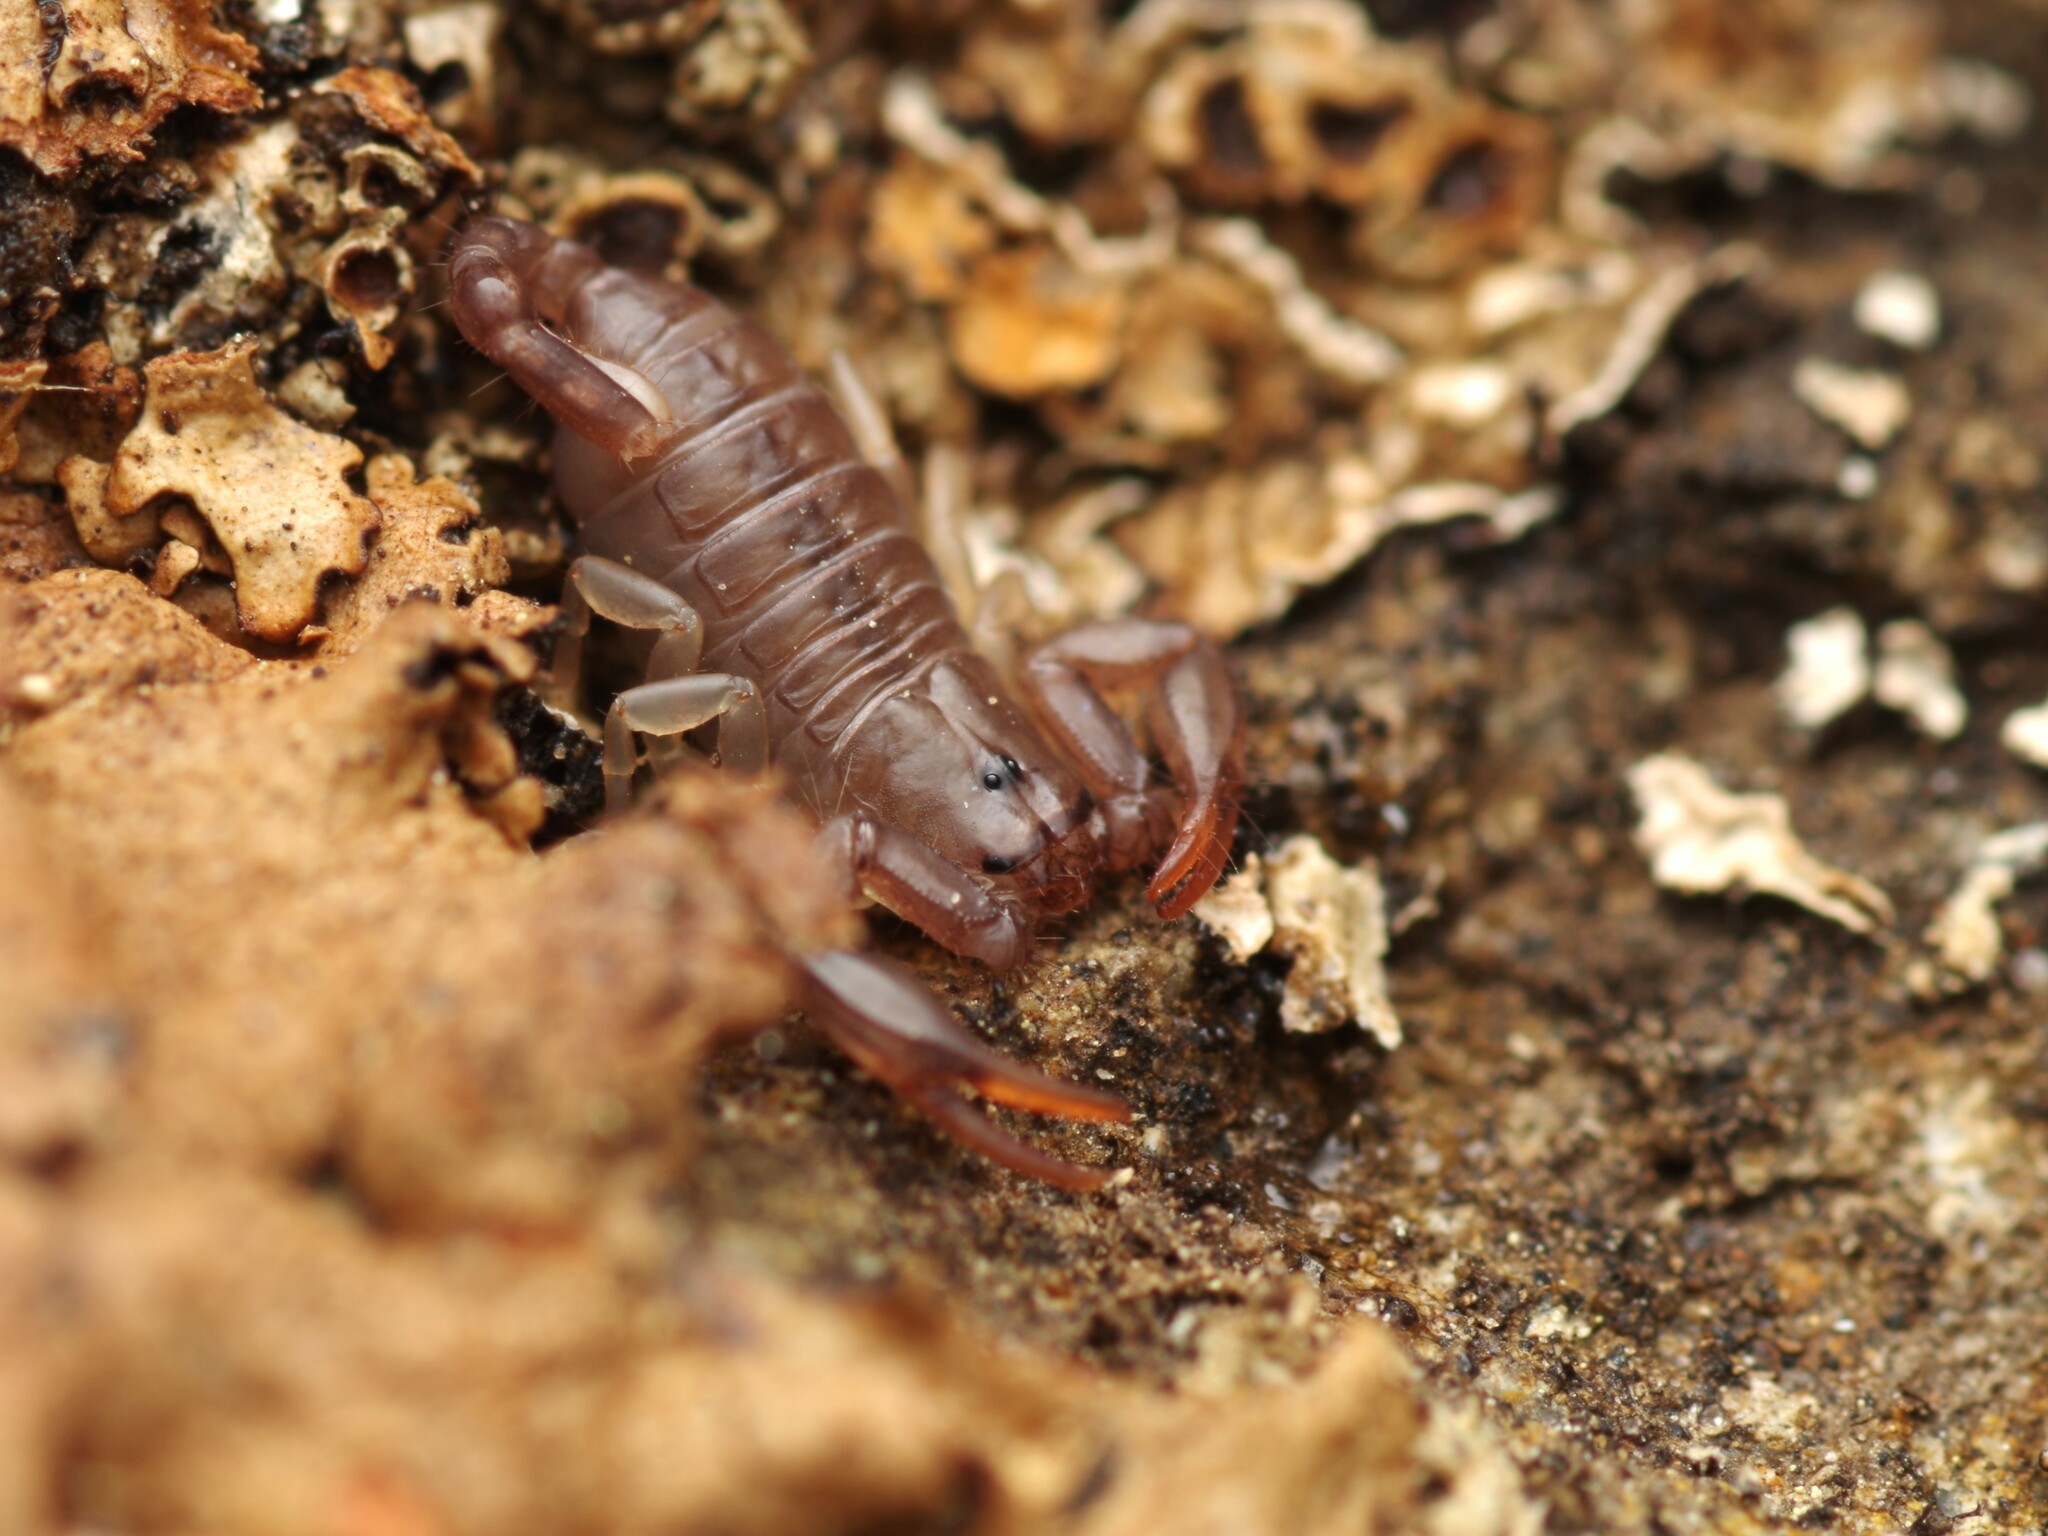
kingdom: Animalia
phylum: Arthropoda
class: Arachnida
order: Scorpiones
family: Euscorpiidae
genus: Euscorpius
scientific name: Euscorpius flavicaudis
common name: European yellow-tailed scorpion
